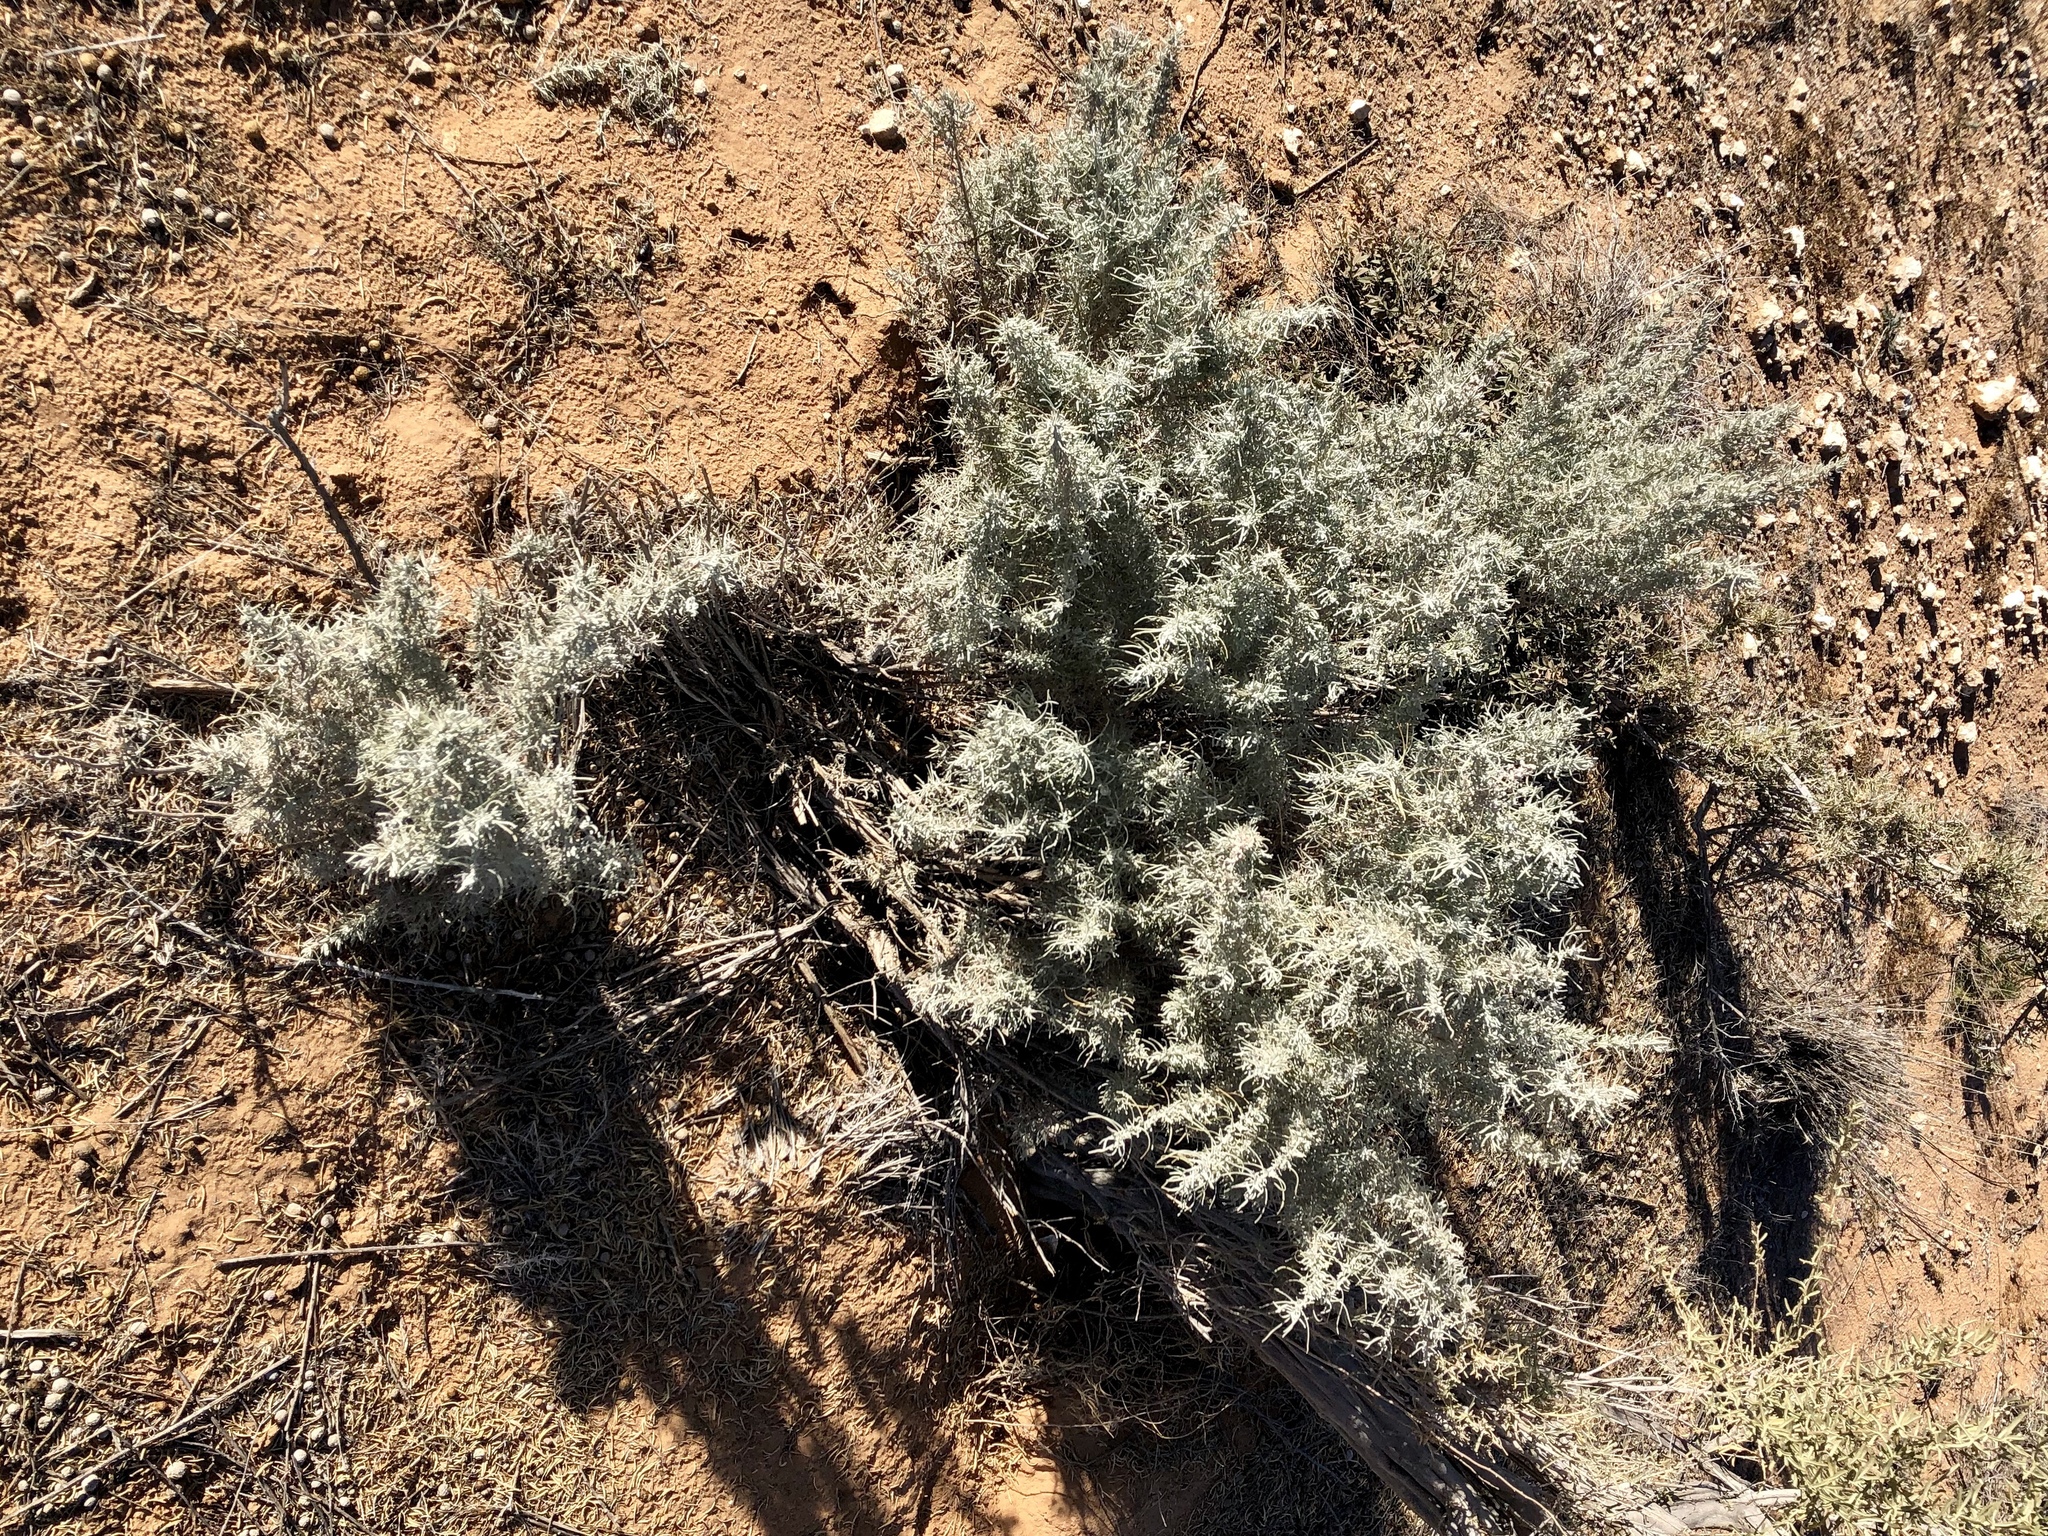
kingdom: Plantae
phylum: Tracheophyta
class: Magnoliopsida
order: Asterales
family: Asteraceae
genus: Artemisia
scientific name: Artemisia filifolia
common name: Sand-sage
